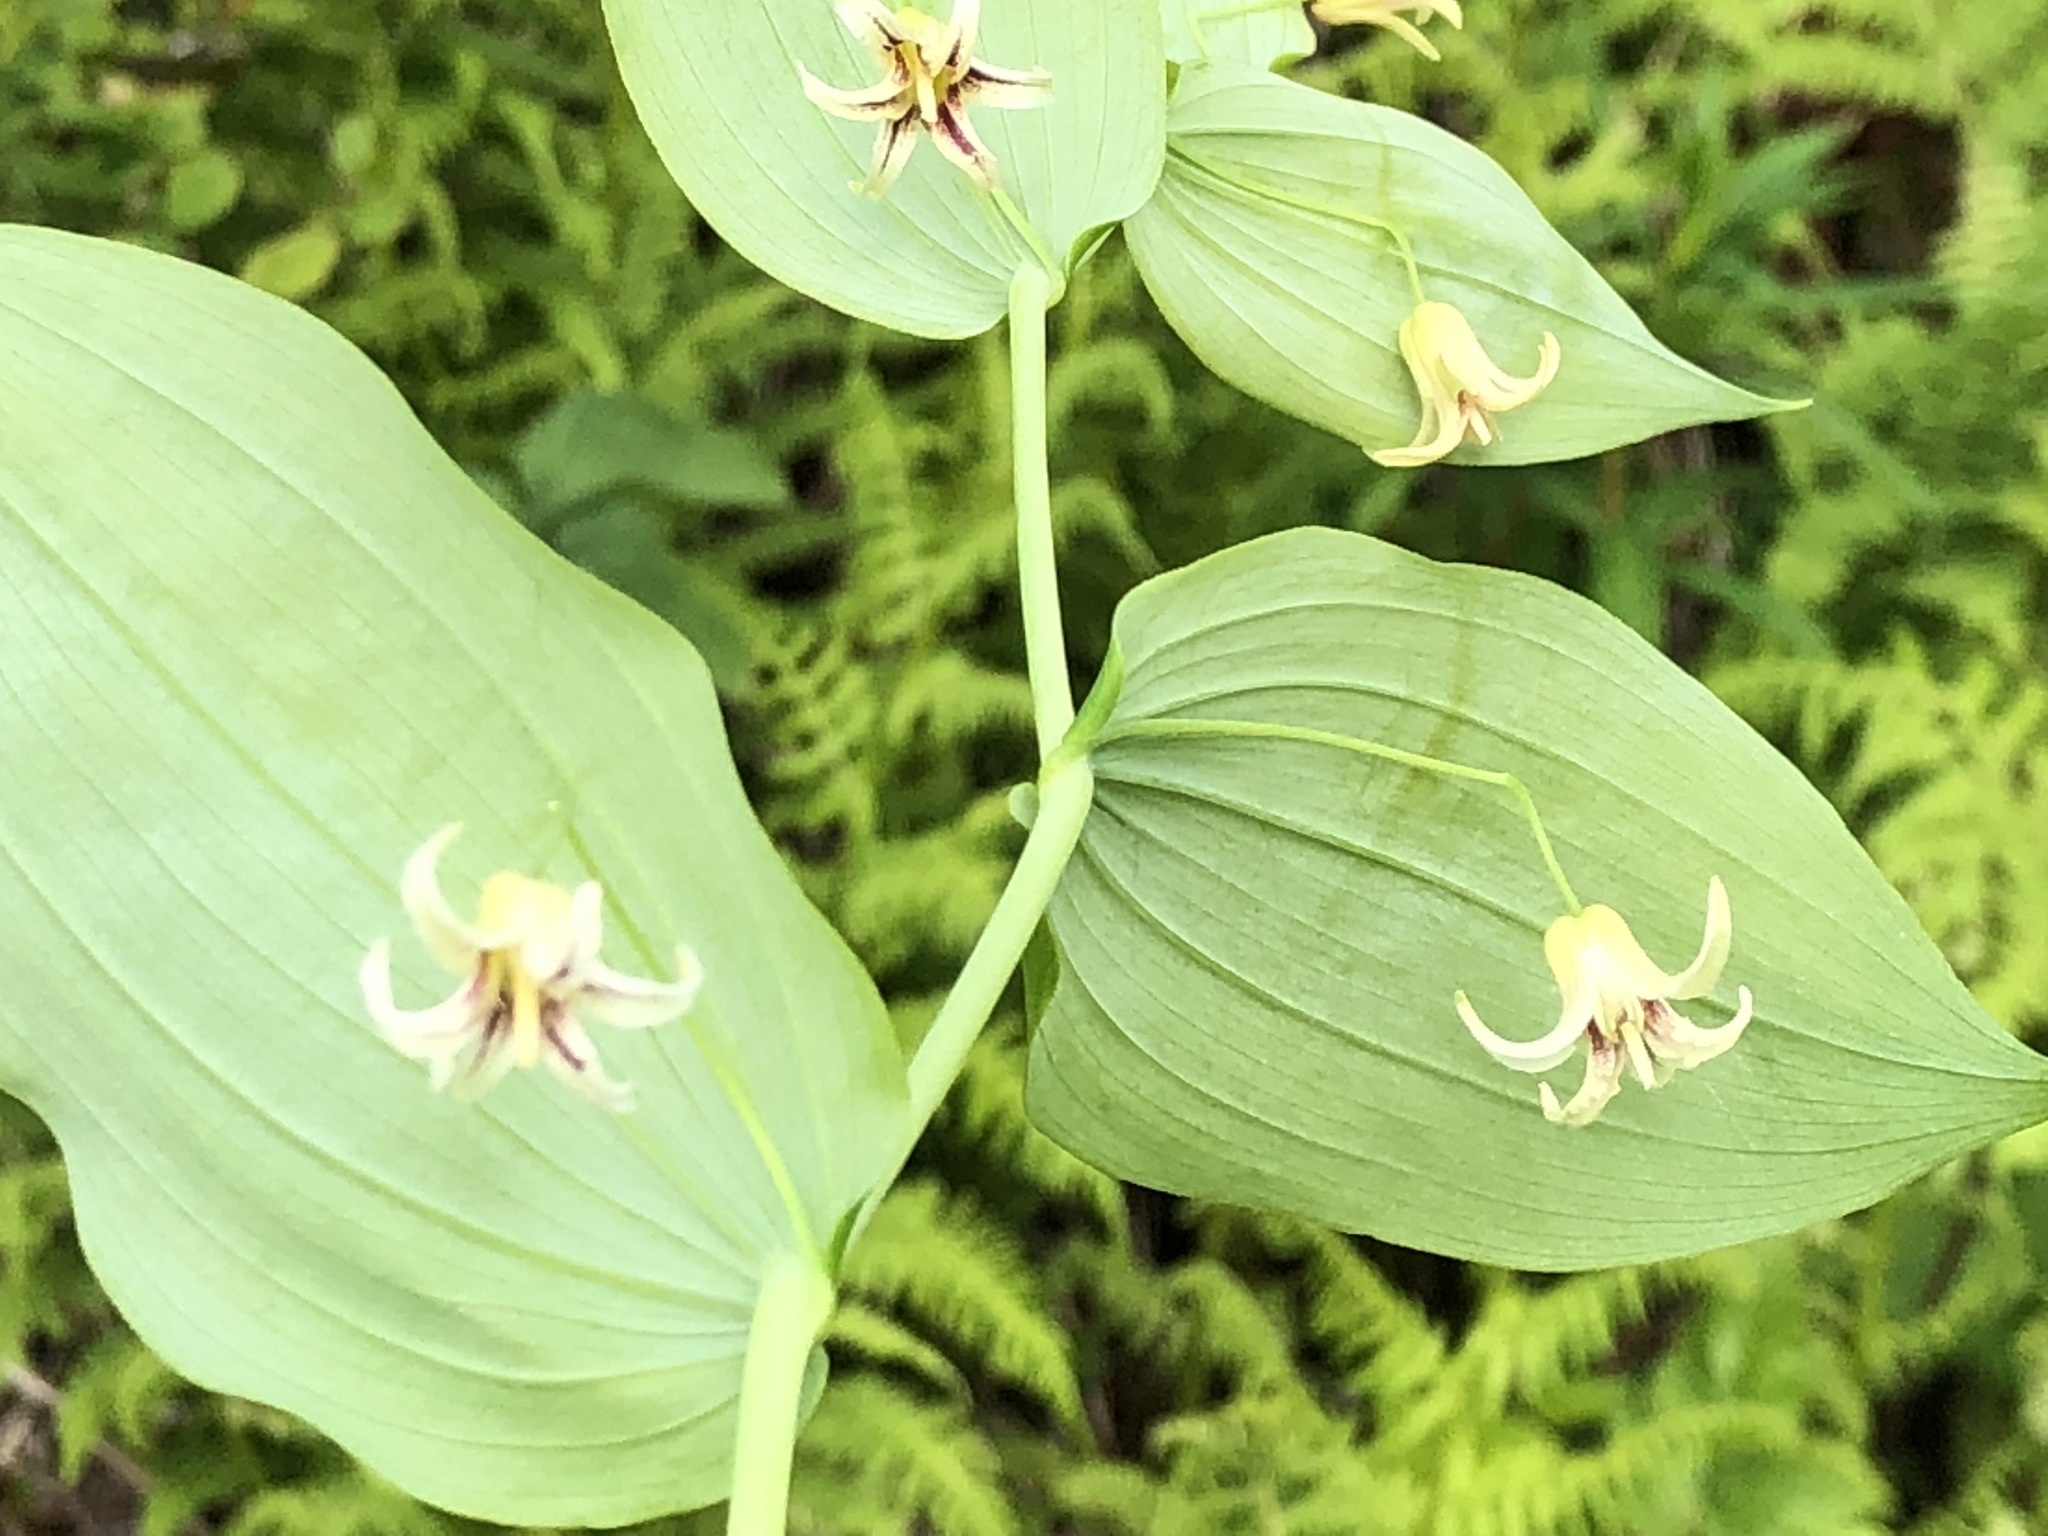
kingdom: Plantae
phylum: Tracheophyta
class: Liliopsida
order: Liliales
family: Liliaceae
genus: Streptopus
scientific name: Streptopus amplexifolius
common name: Clasp twisted stalk
